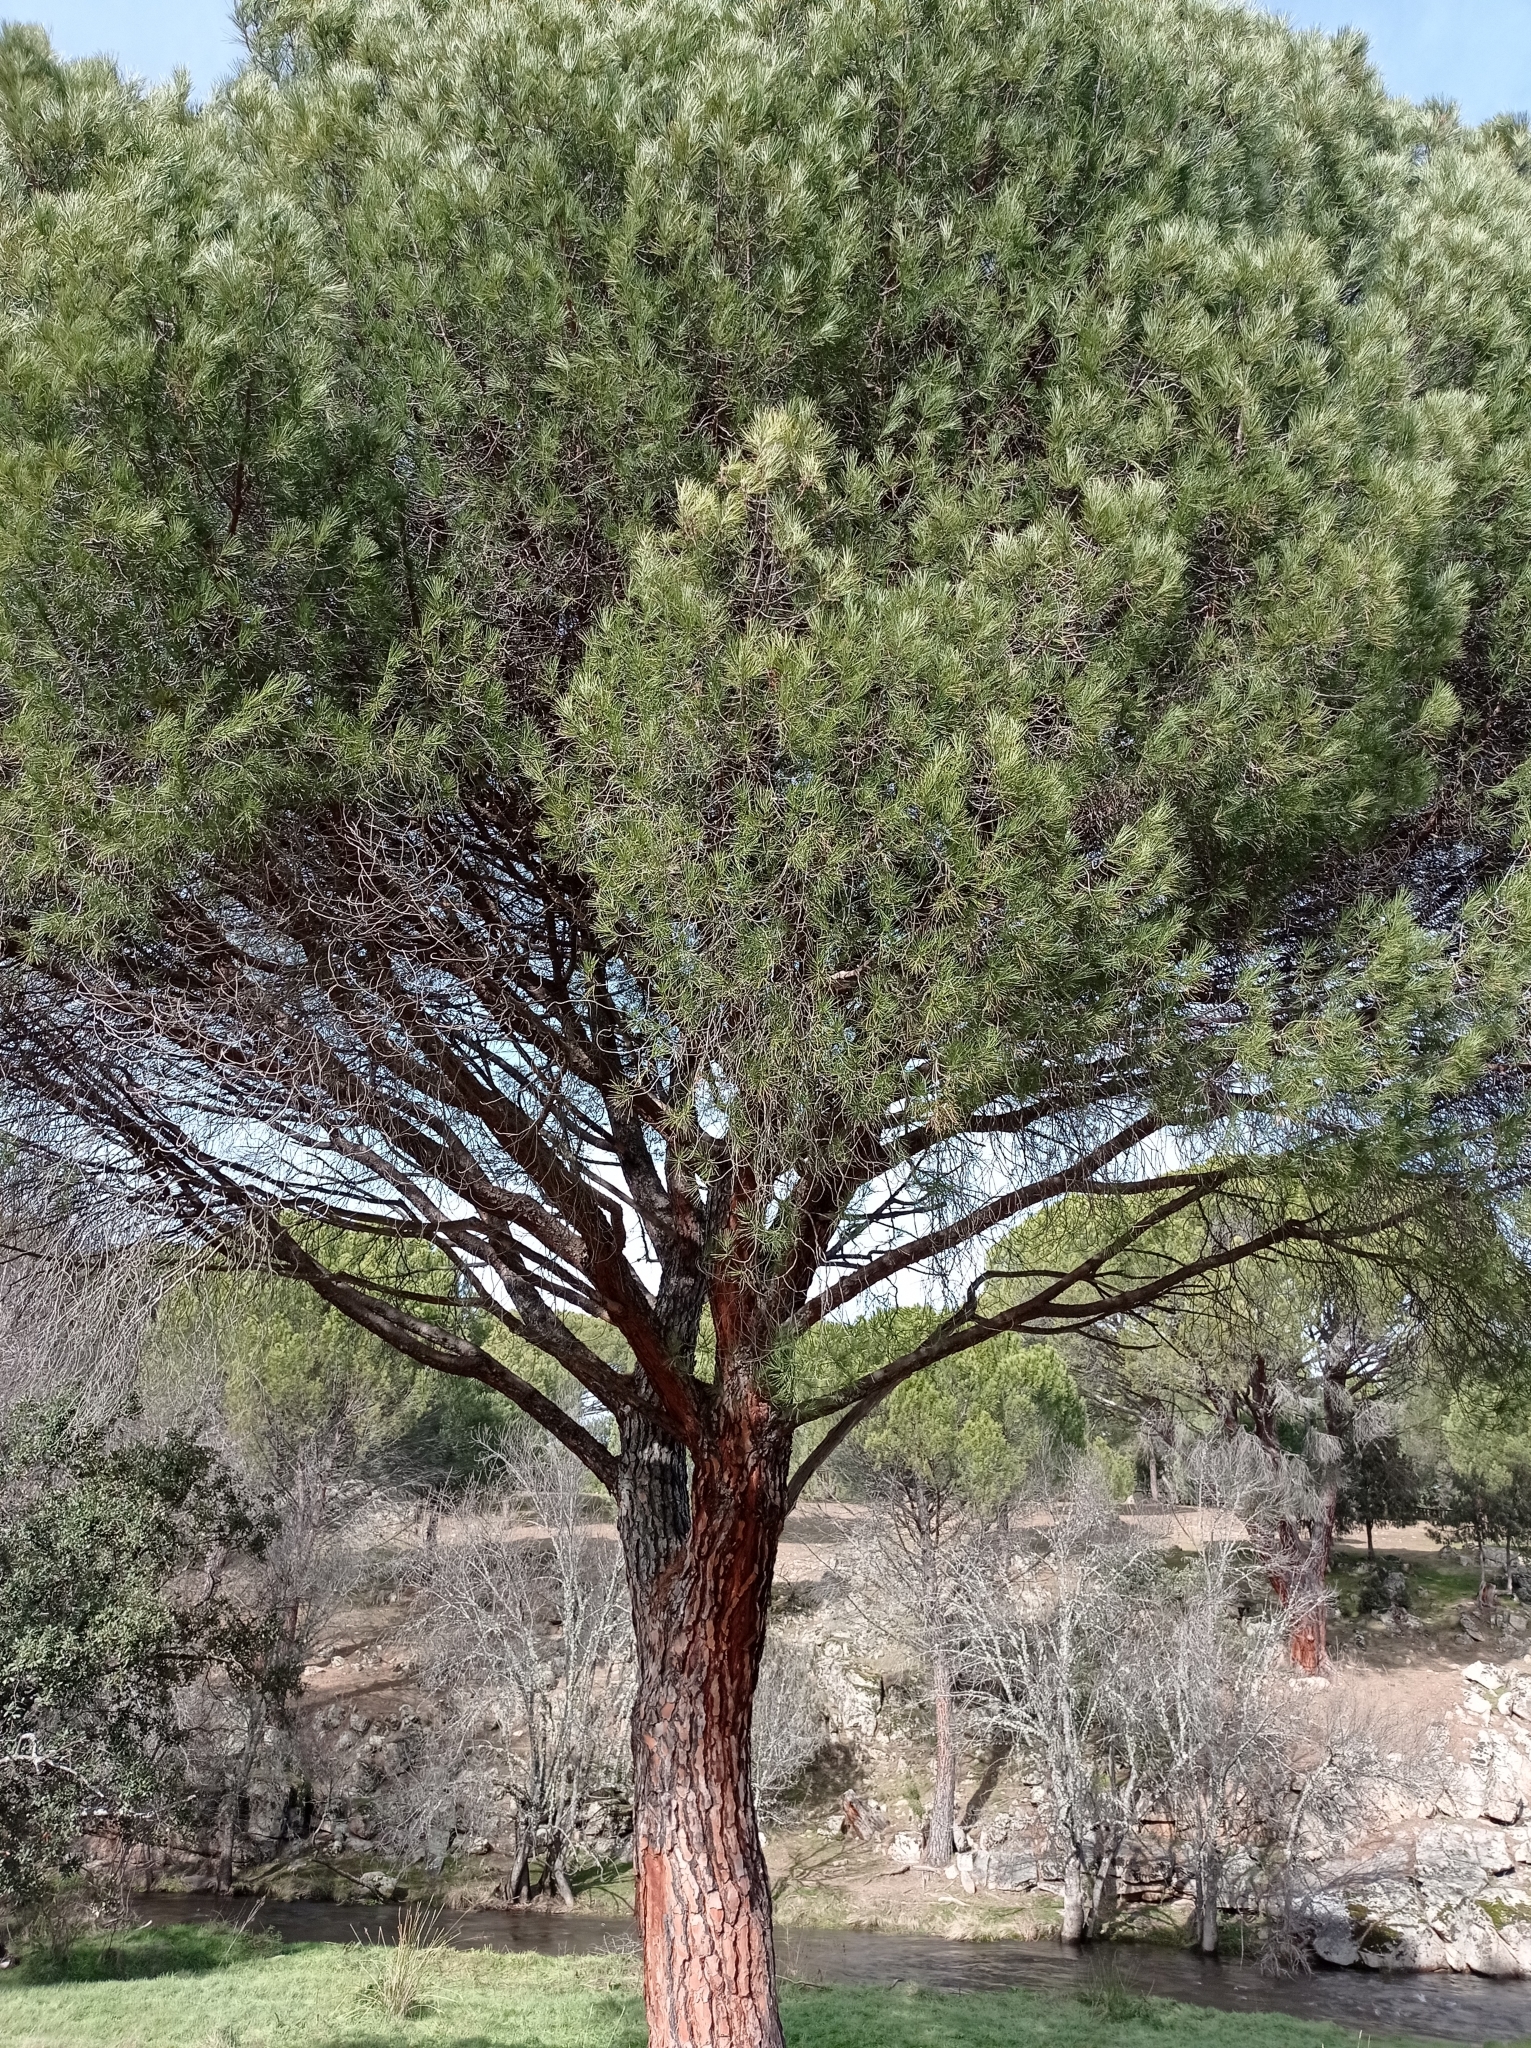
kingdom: Plantae
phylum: Tracheophyta
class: Pinopsida
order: Pinales
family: Pinaceae
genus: Pinus
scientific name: Pinus pinea
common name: Italian stone pine
